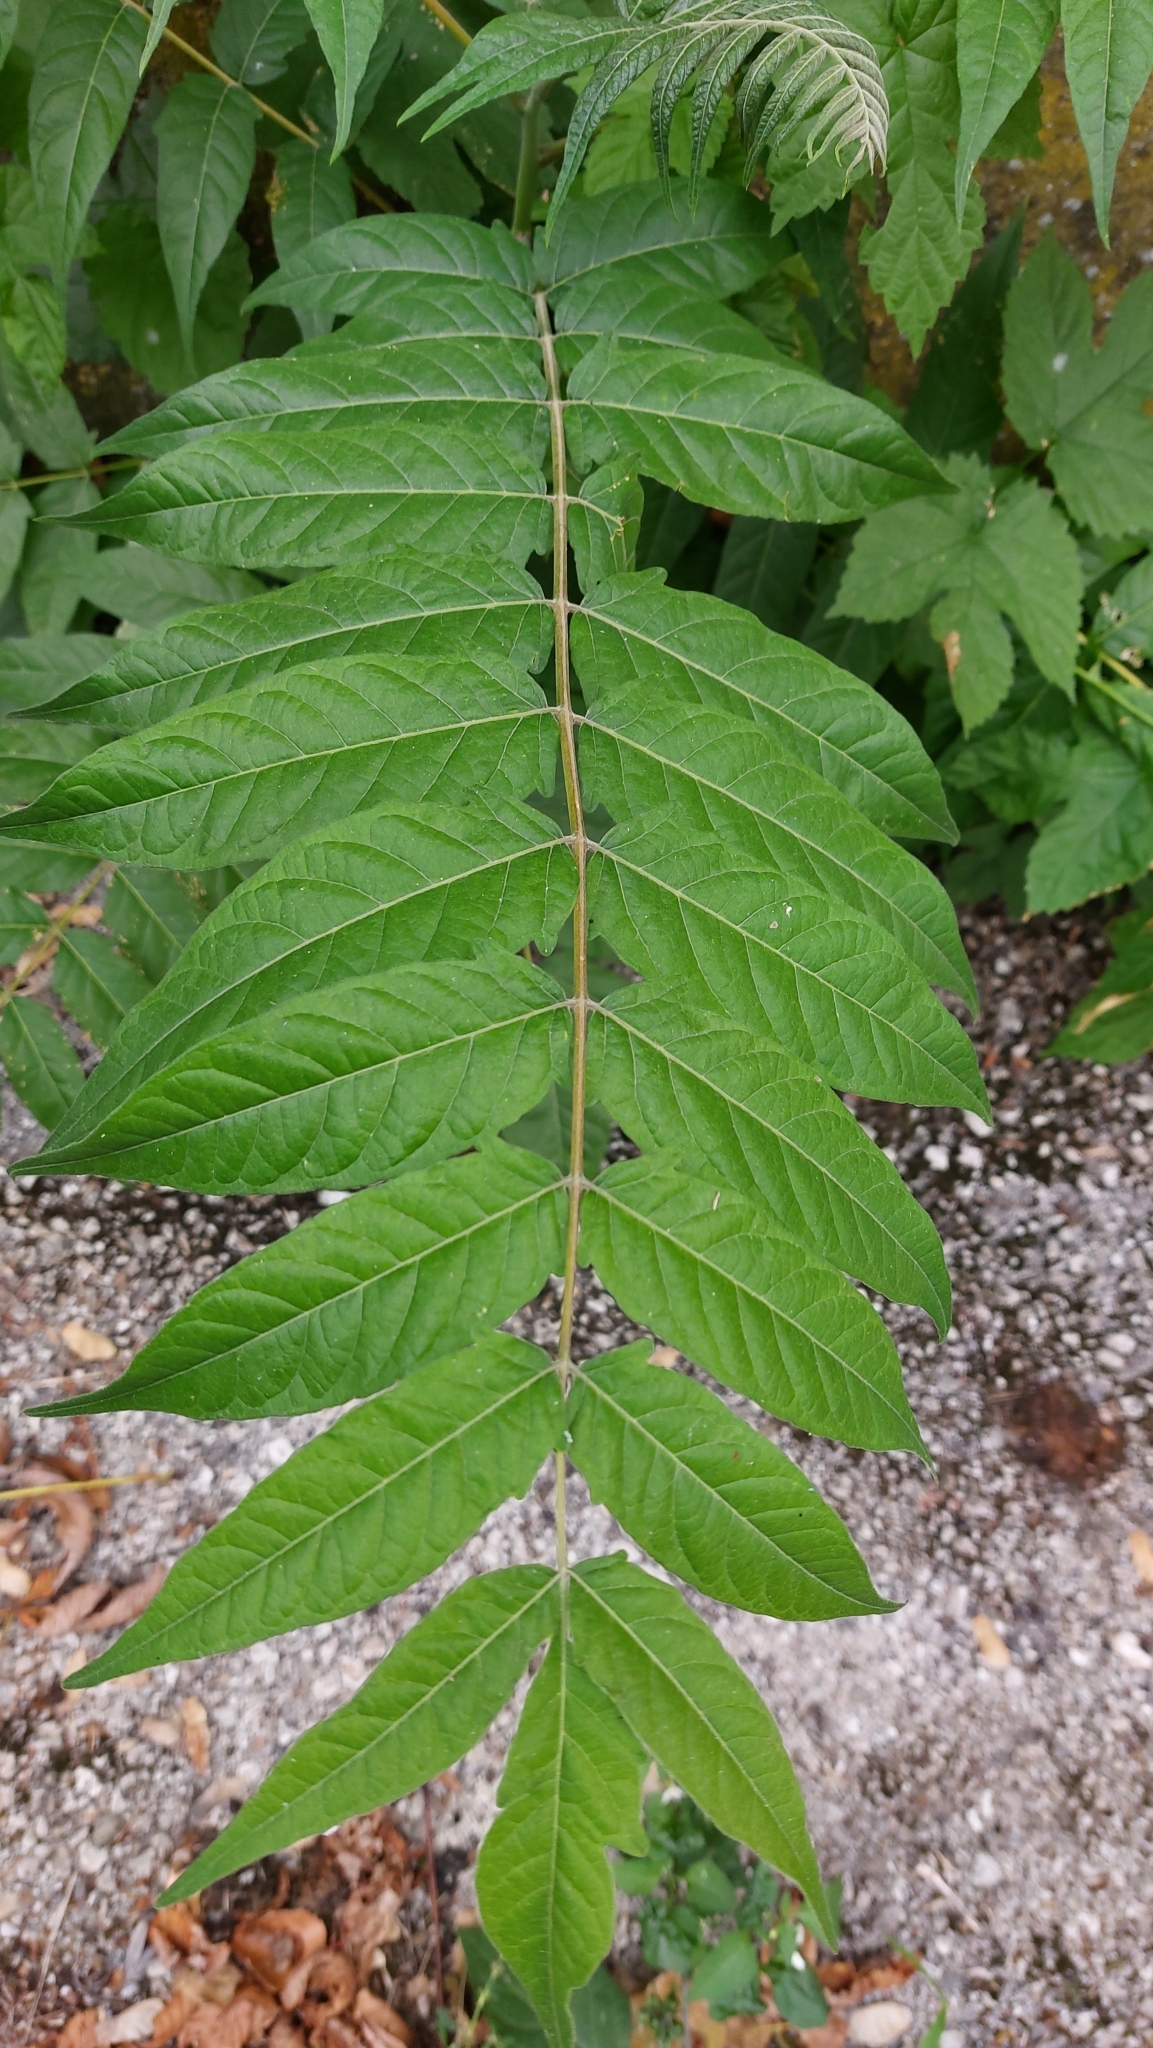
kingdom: Plantae
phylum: Tracheophyta
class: Magnoliopsida
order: Sapindales
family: Simaroubaceae
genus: Ailanthus
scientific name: Ailanthus altissima
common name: Tree-of-heaven
